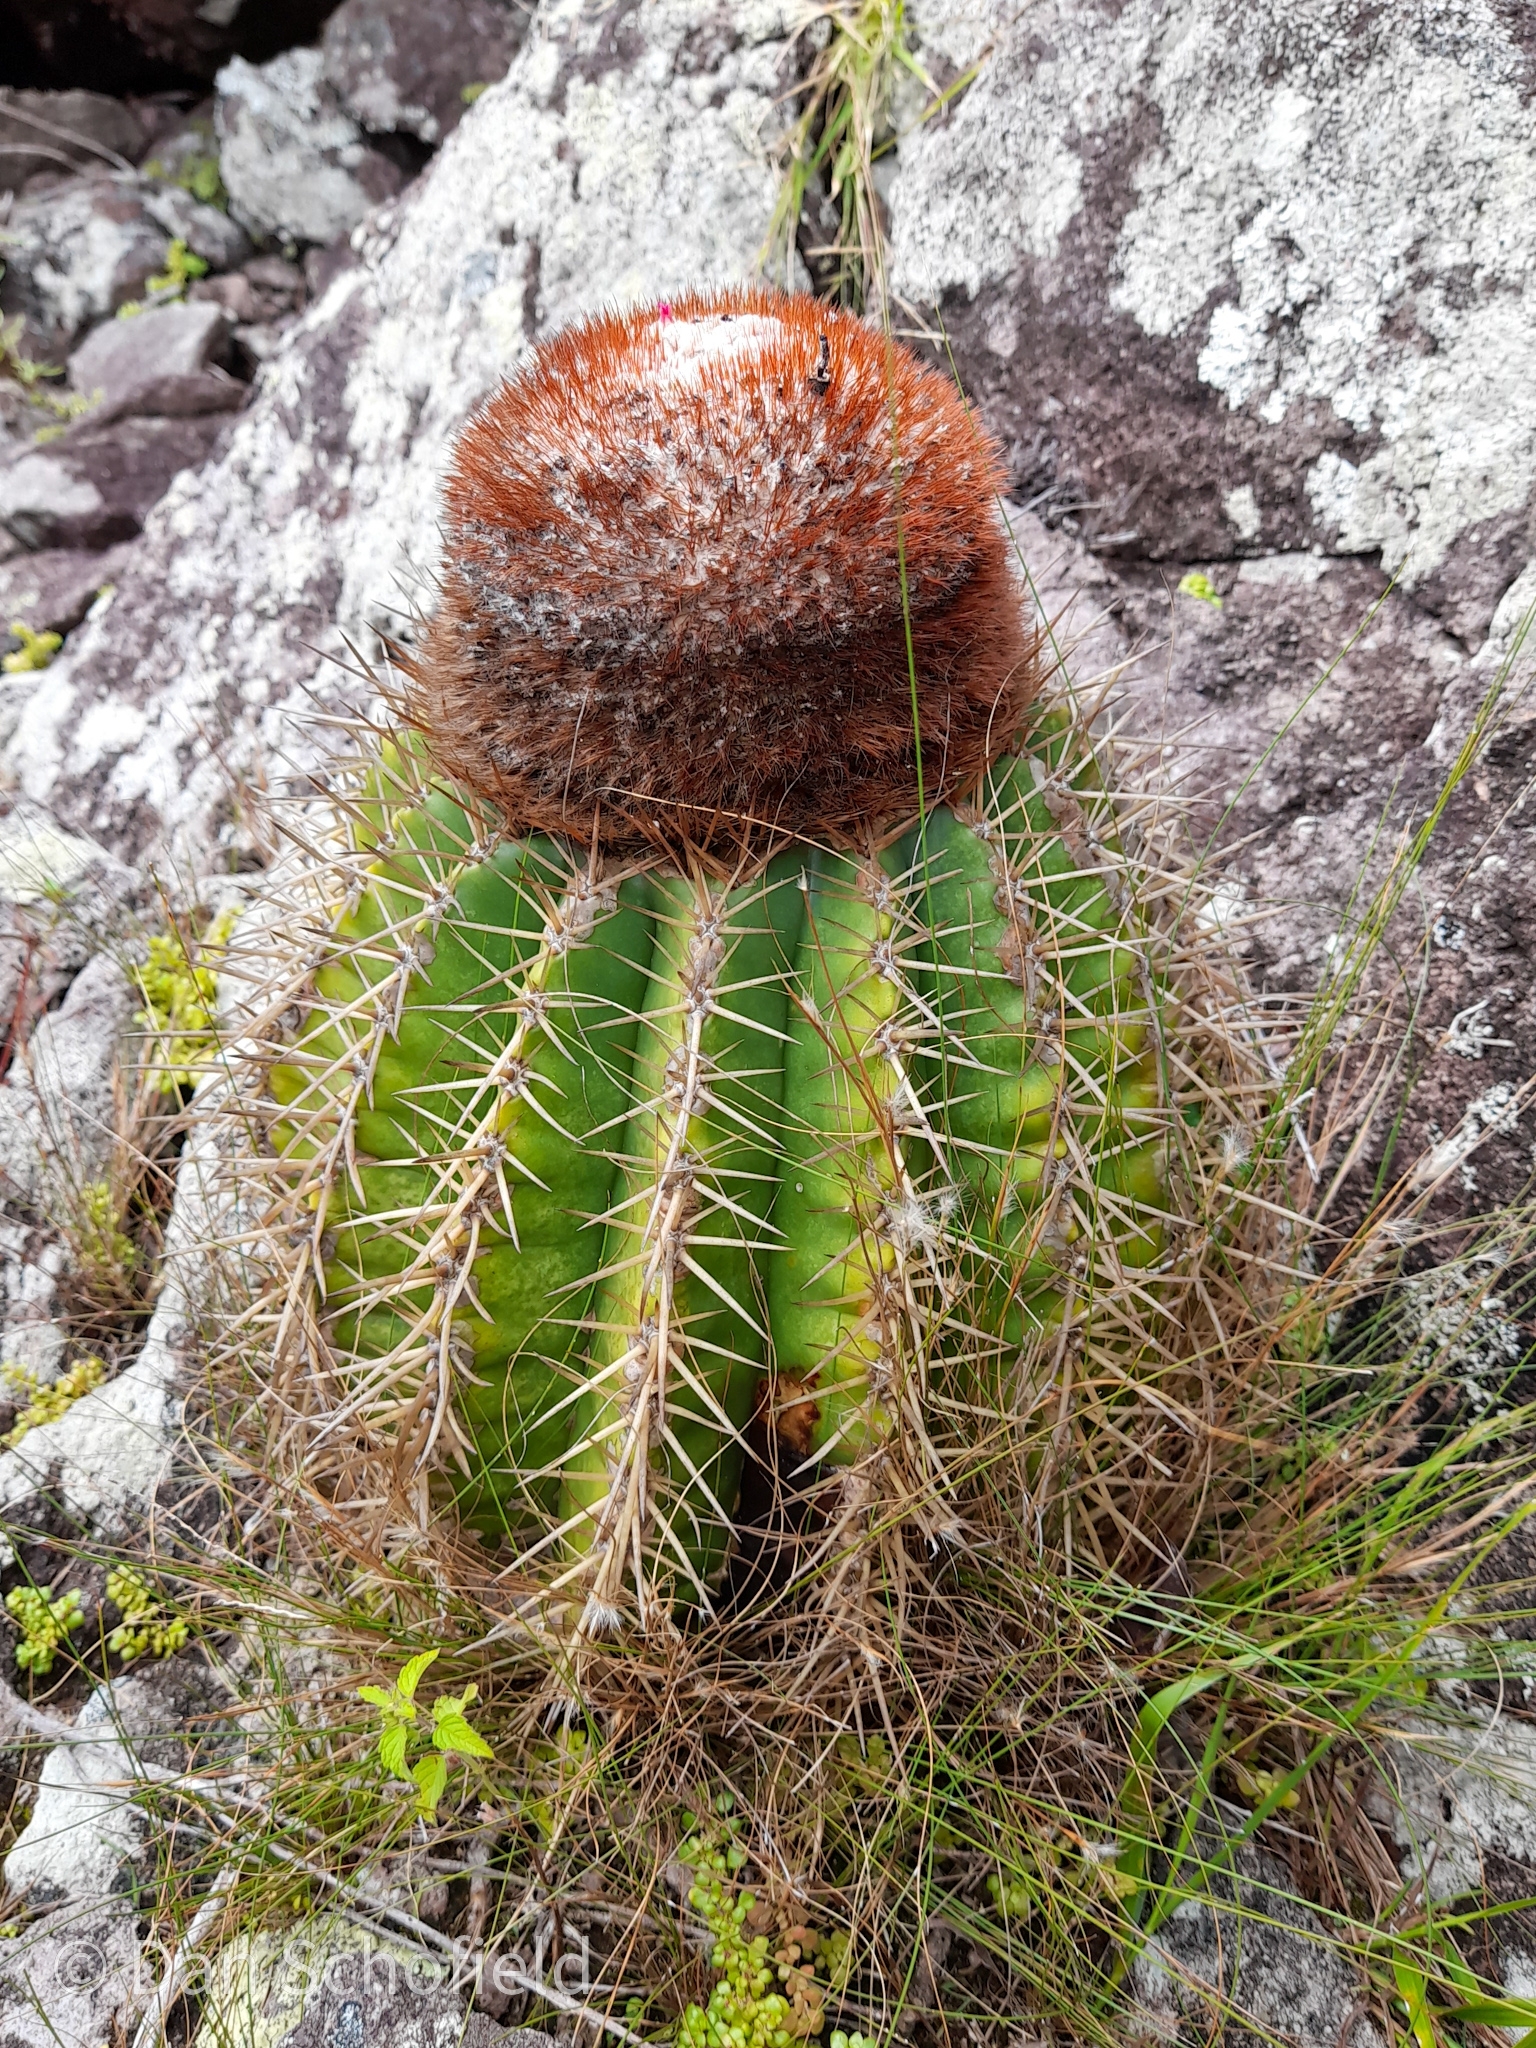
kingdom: Plantae
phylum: Tracheophyta
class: Magnoliopsida
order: Caryophyllales
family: Cactaceae
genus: Melocactus
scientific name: Melocactus intortus
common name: Barrel cactus
